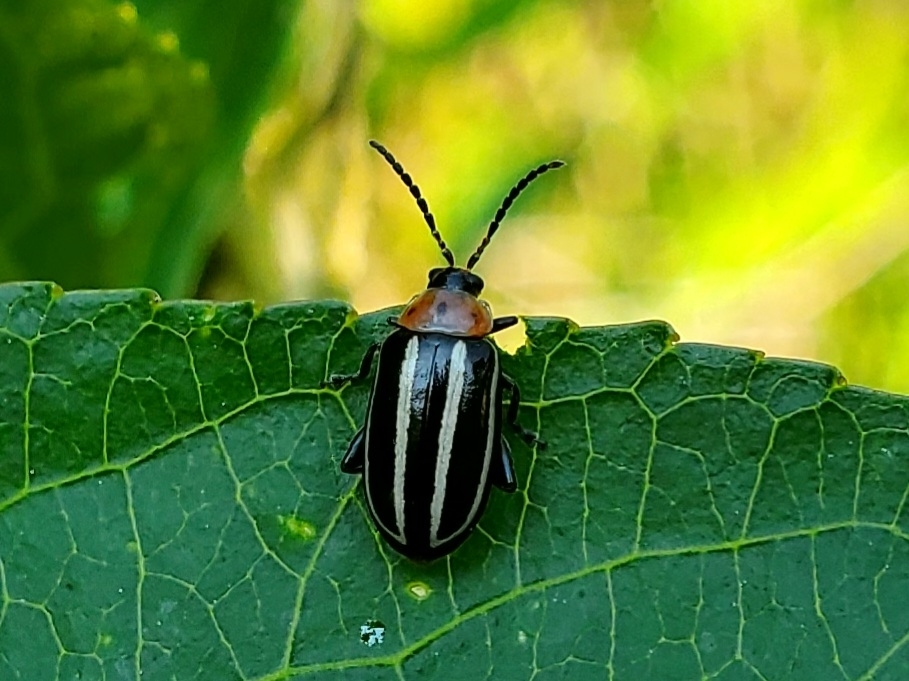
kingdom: Animalia
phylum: Arthropoda
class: Insecta
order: Coleoptera
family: Chrysomelidae
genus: Disonycha
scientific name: Disonycha glabrata
